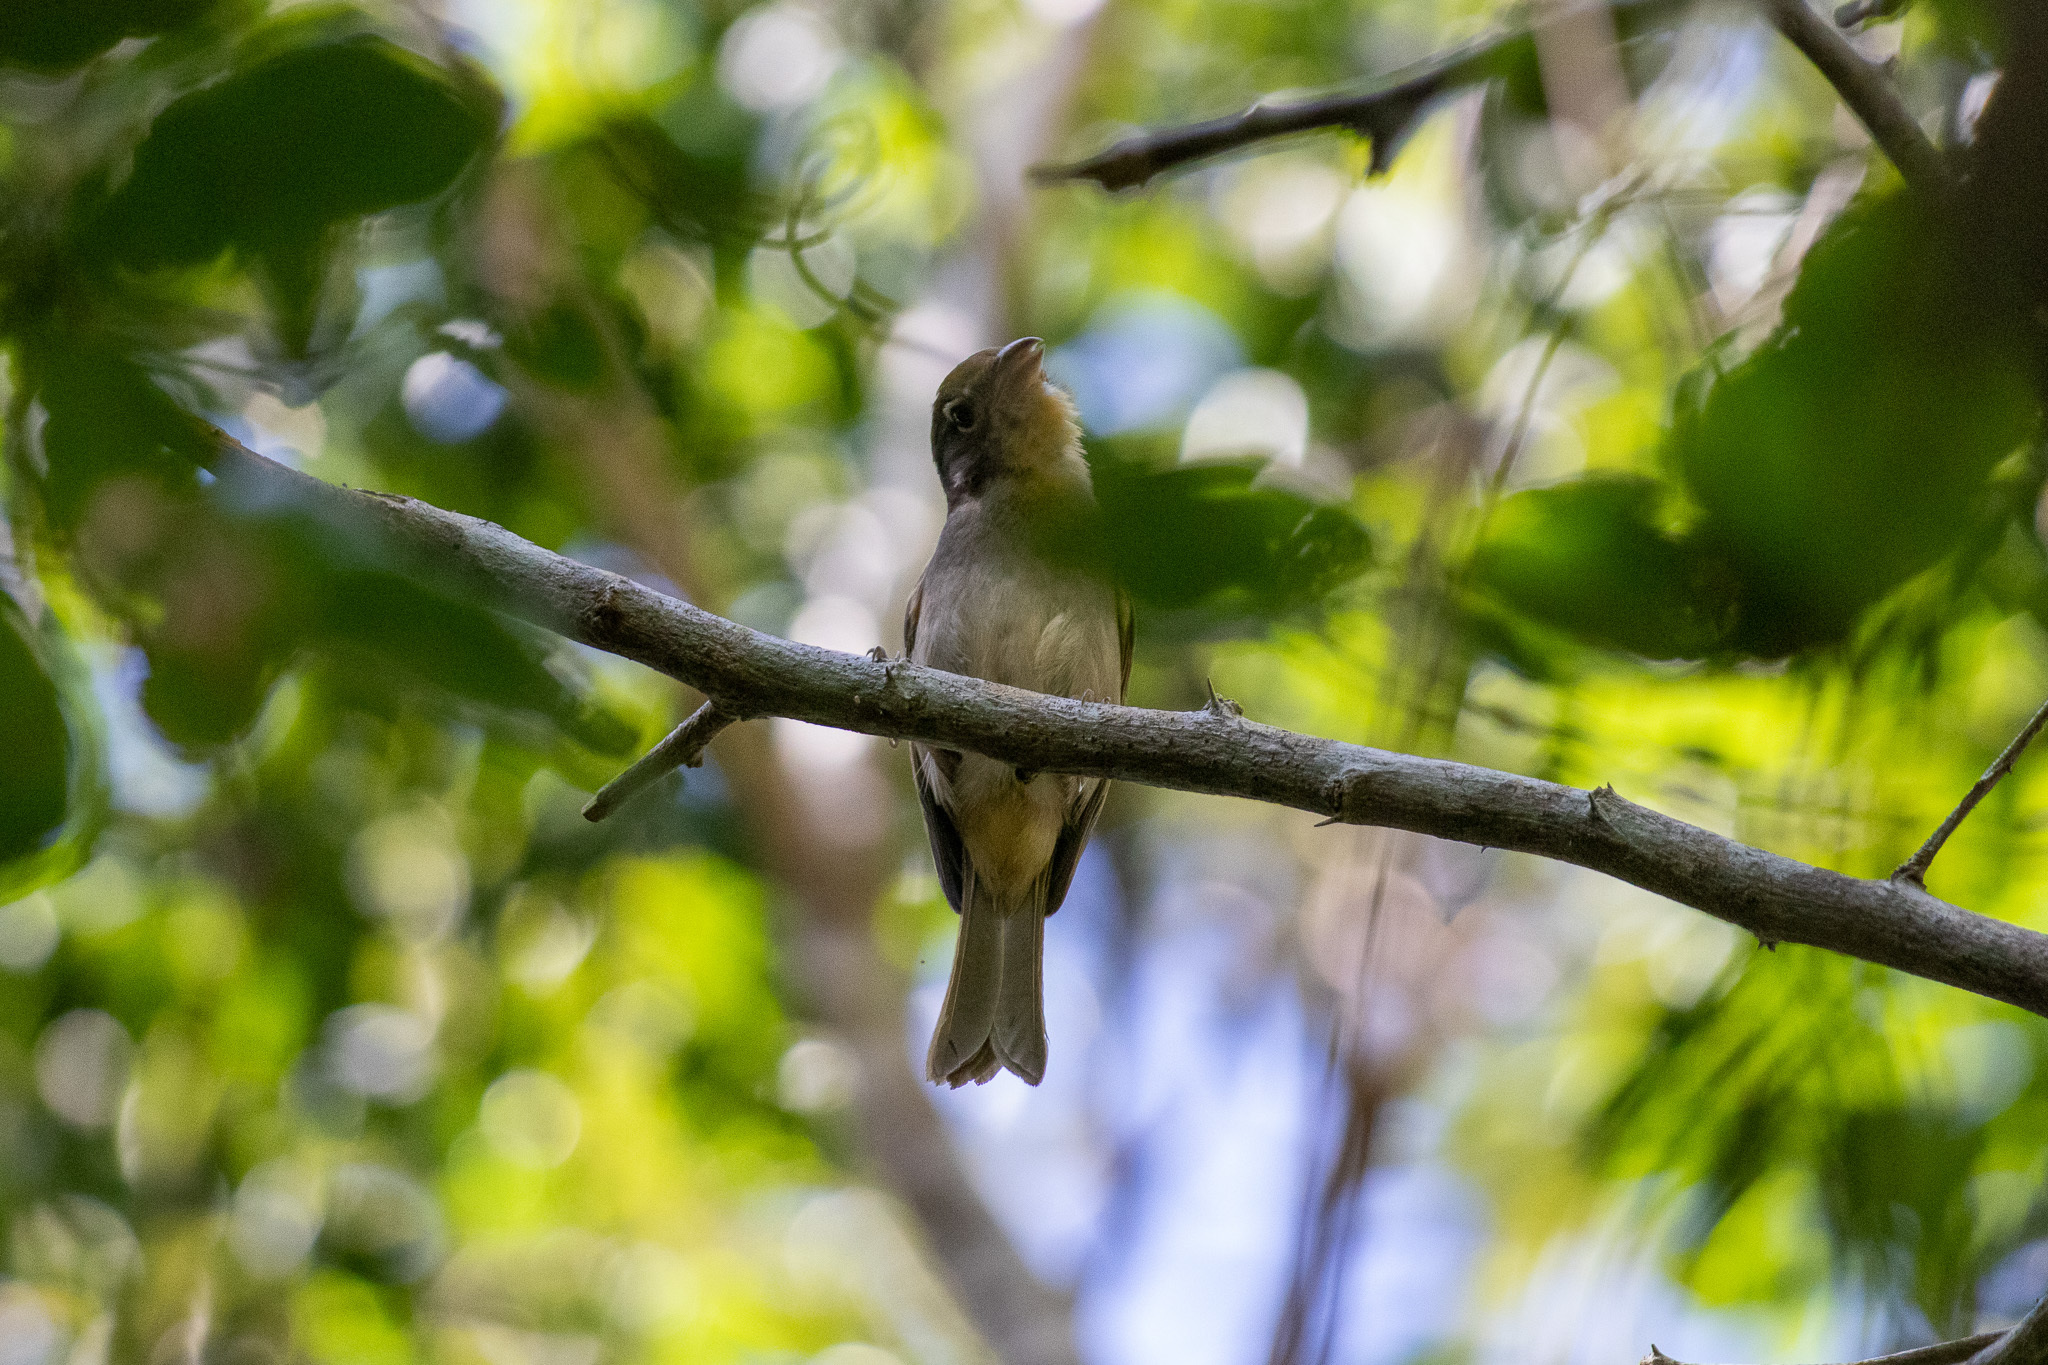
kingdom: Animalia
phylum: Chordata
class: Aves
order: Passeriformes
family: Cardinalidae
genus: Piranga
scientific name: Piranga roseogularis
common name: Rose-throated tanager
